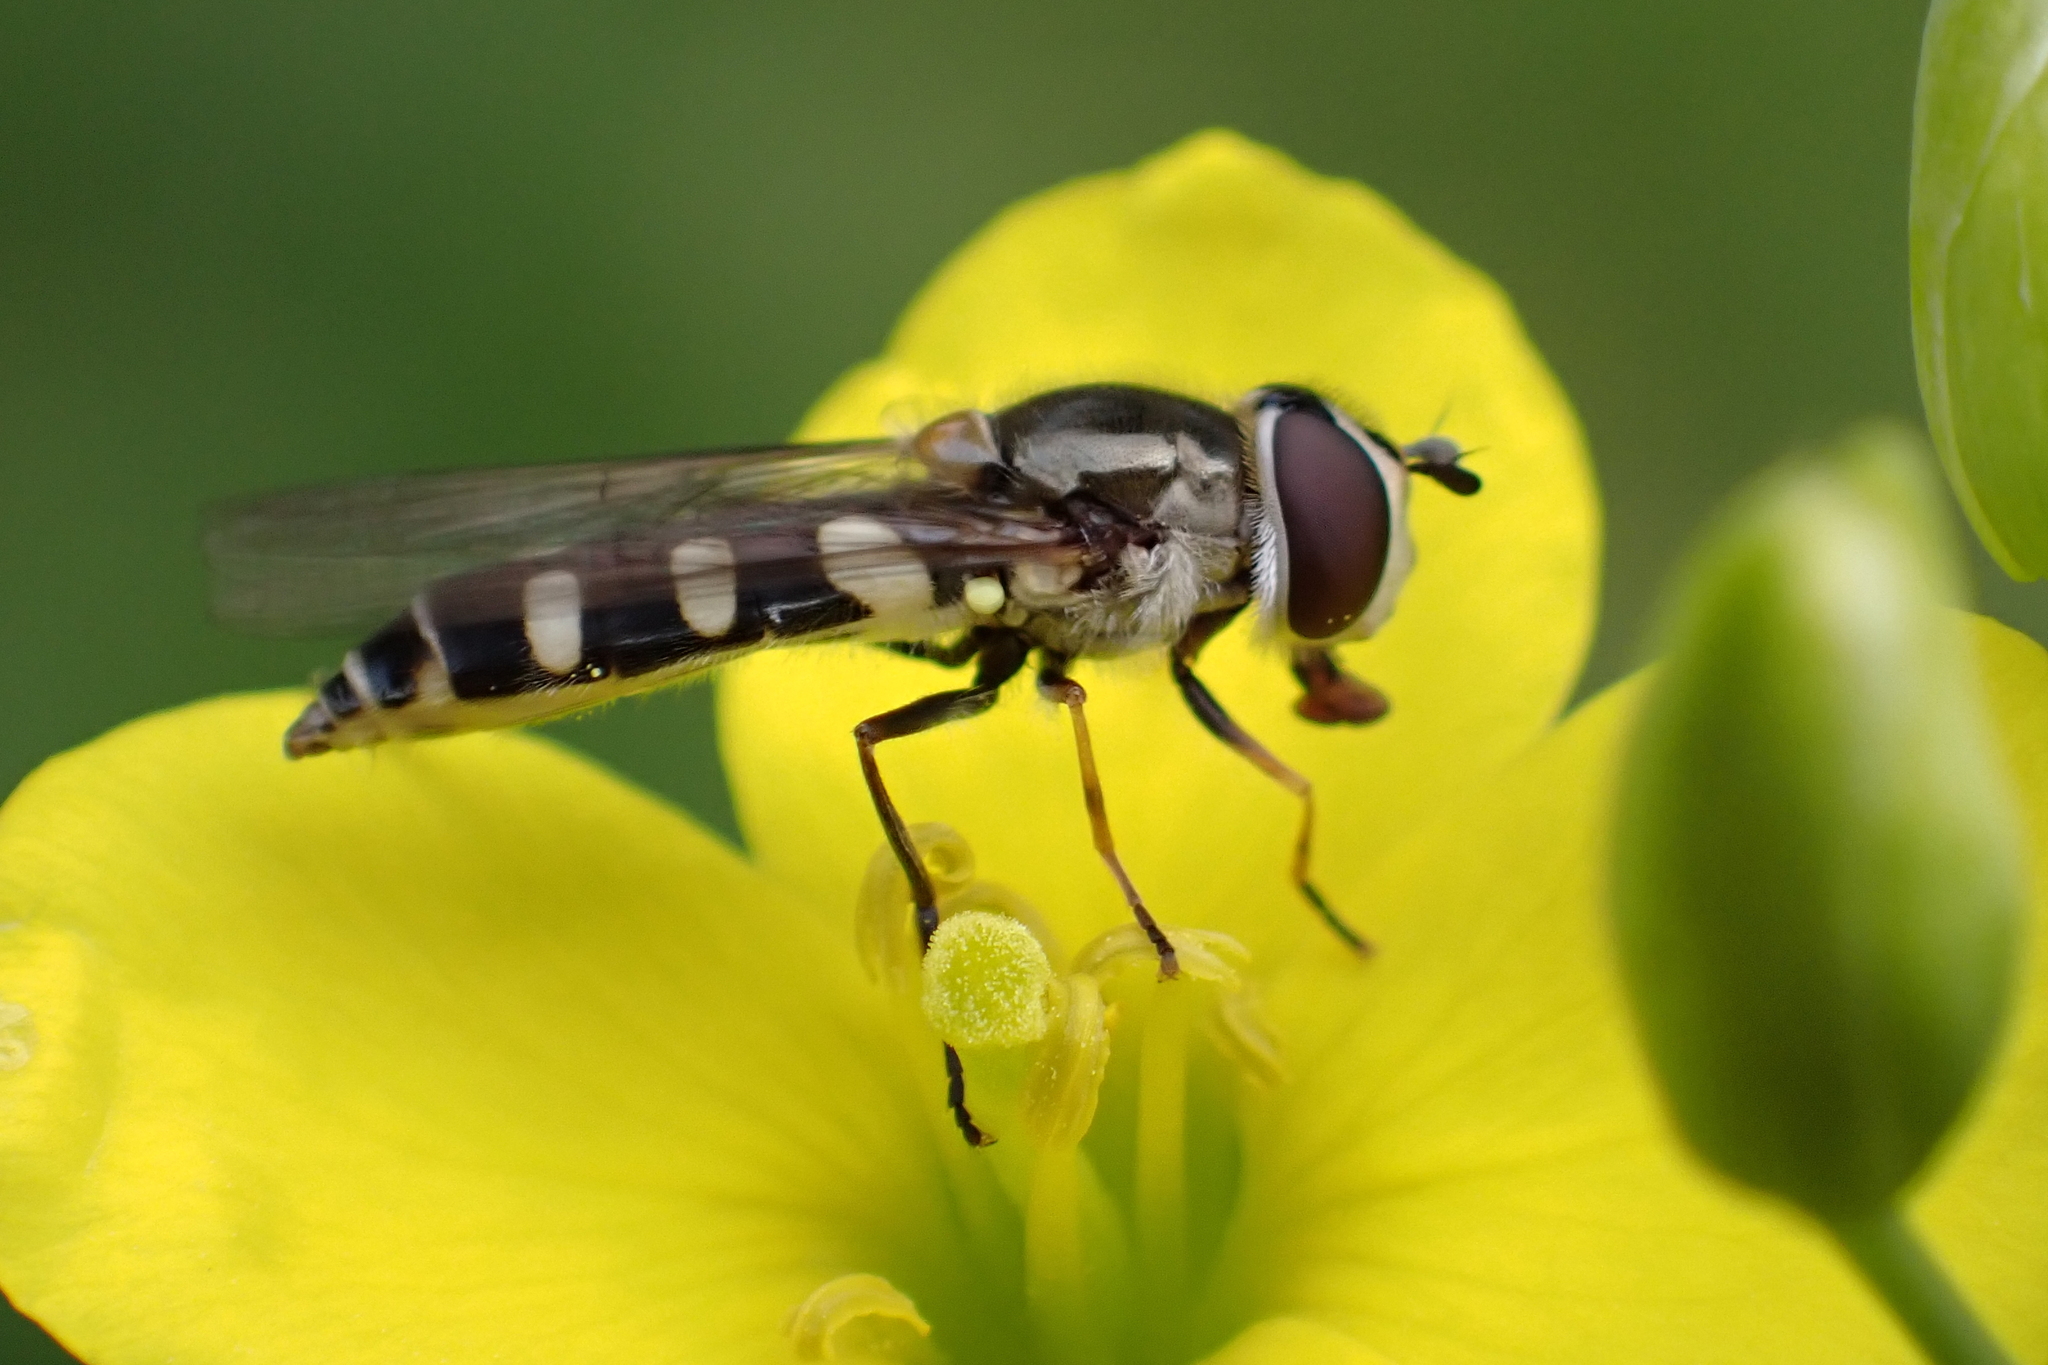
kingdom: Animalia
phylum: Arthropoda
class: Insecta
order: Diptera
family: Syrphidae
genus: Melangyna
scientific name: Melangyna umbellatarum
